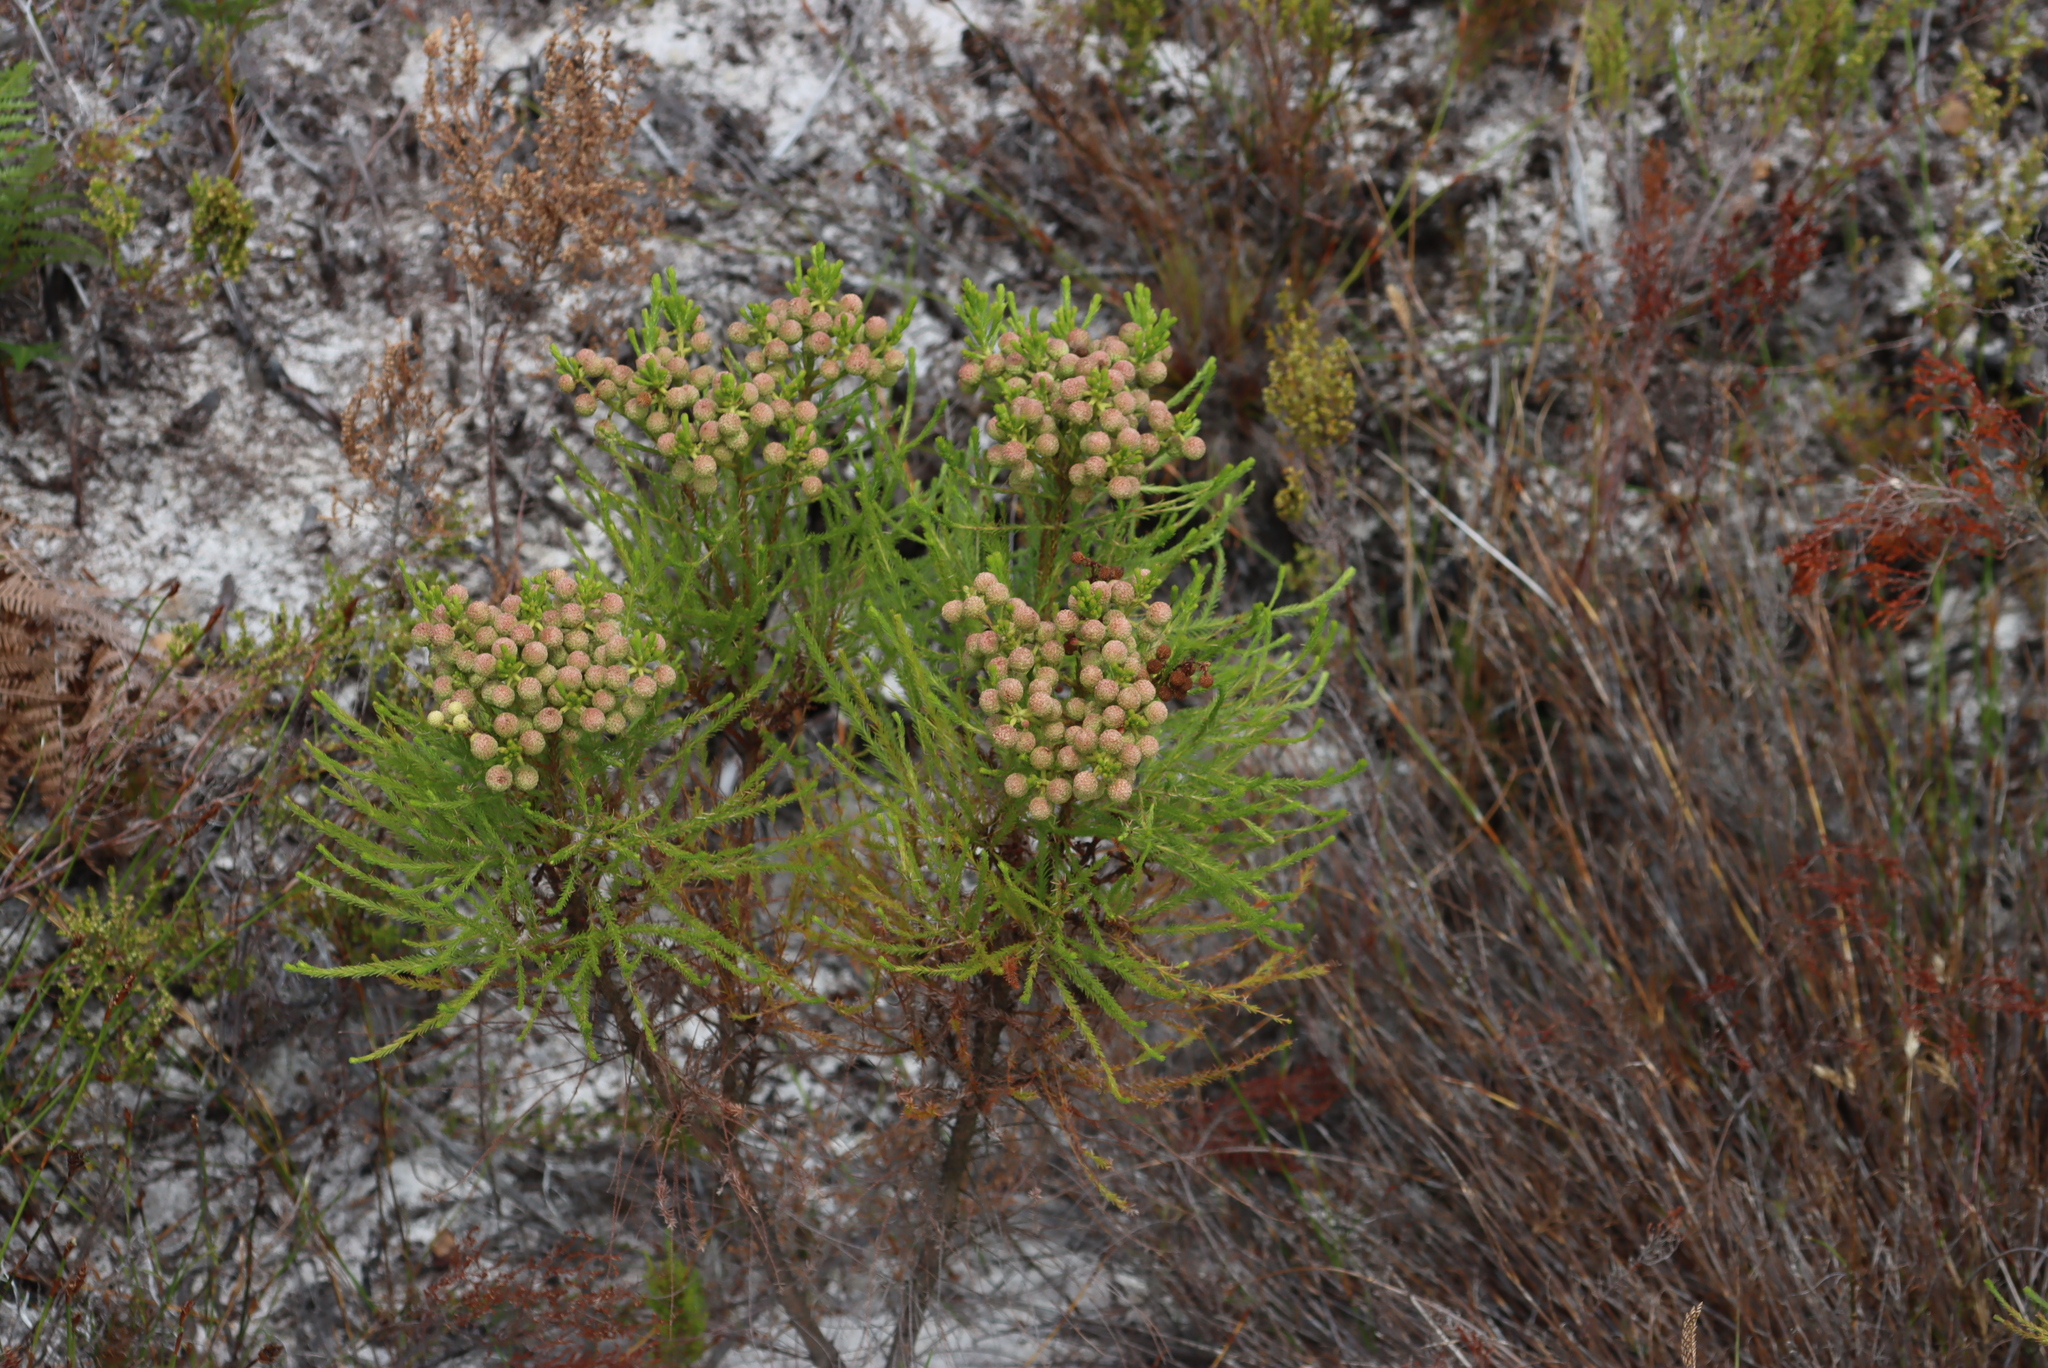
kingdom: Plantae
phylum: Tracheophyta
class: Magnoliopsida
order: Bruniales
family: Bruniaceae
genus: Berzelia
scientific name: Berzelia lanuginosa
